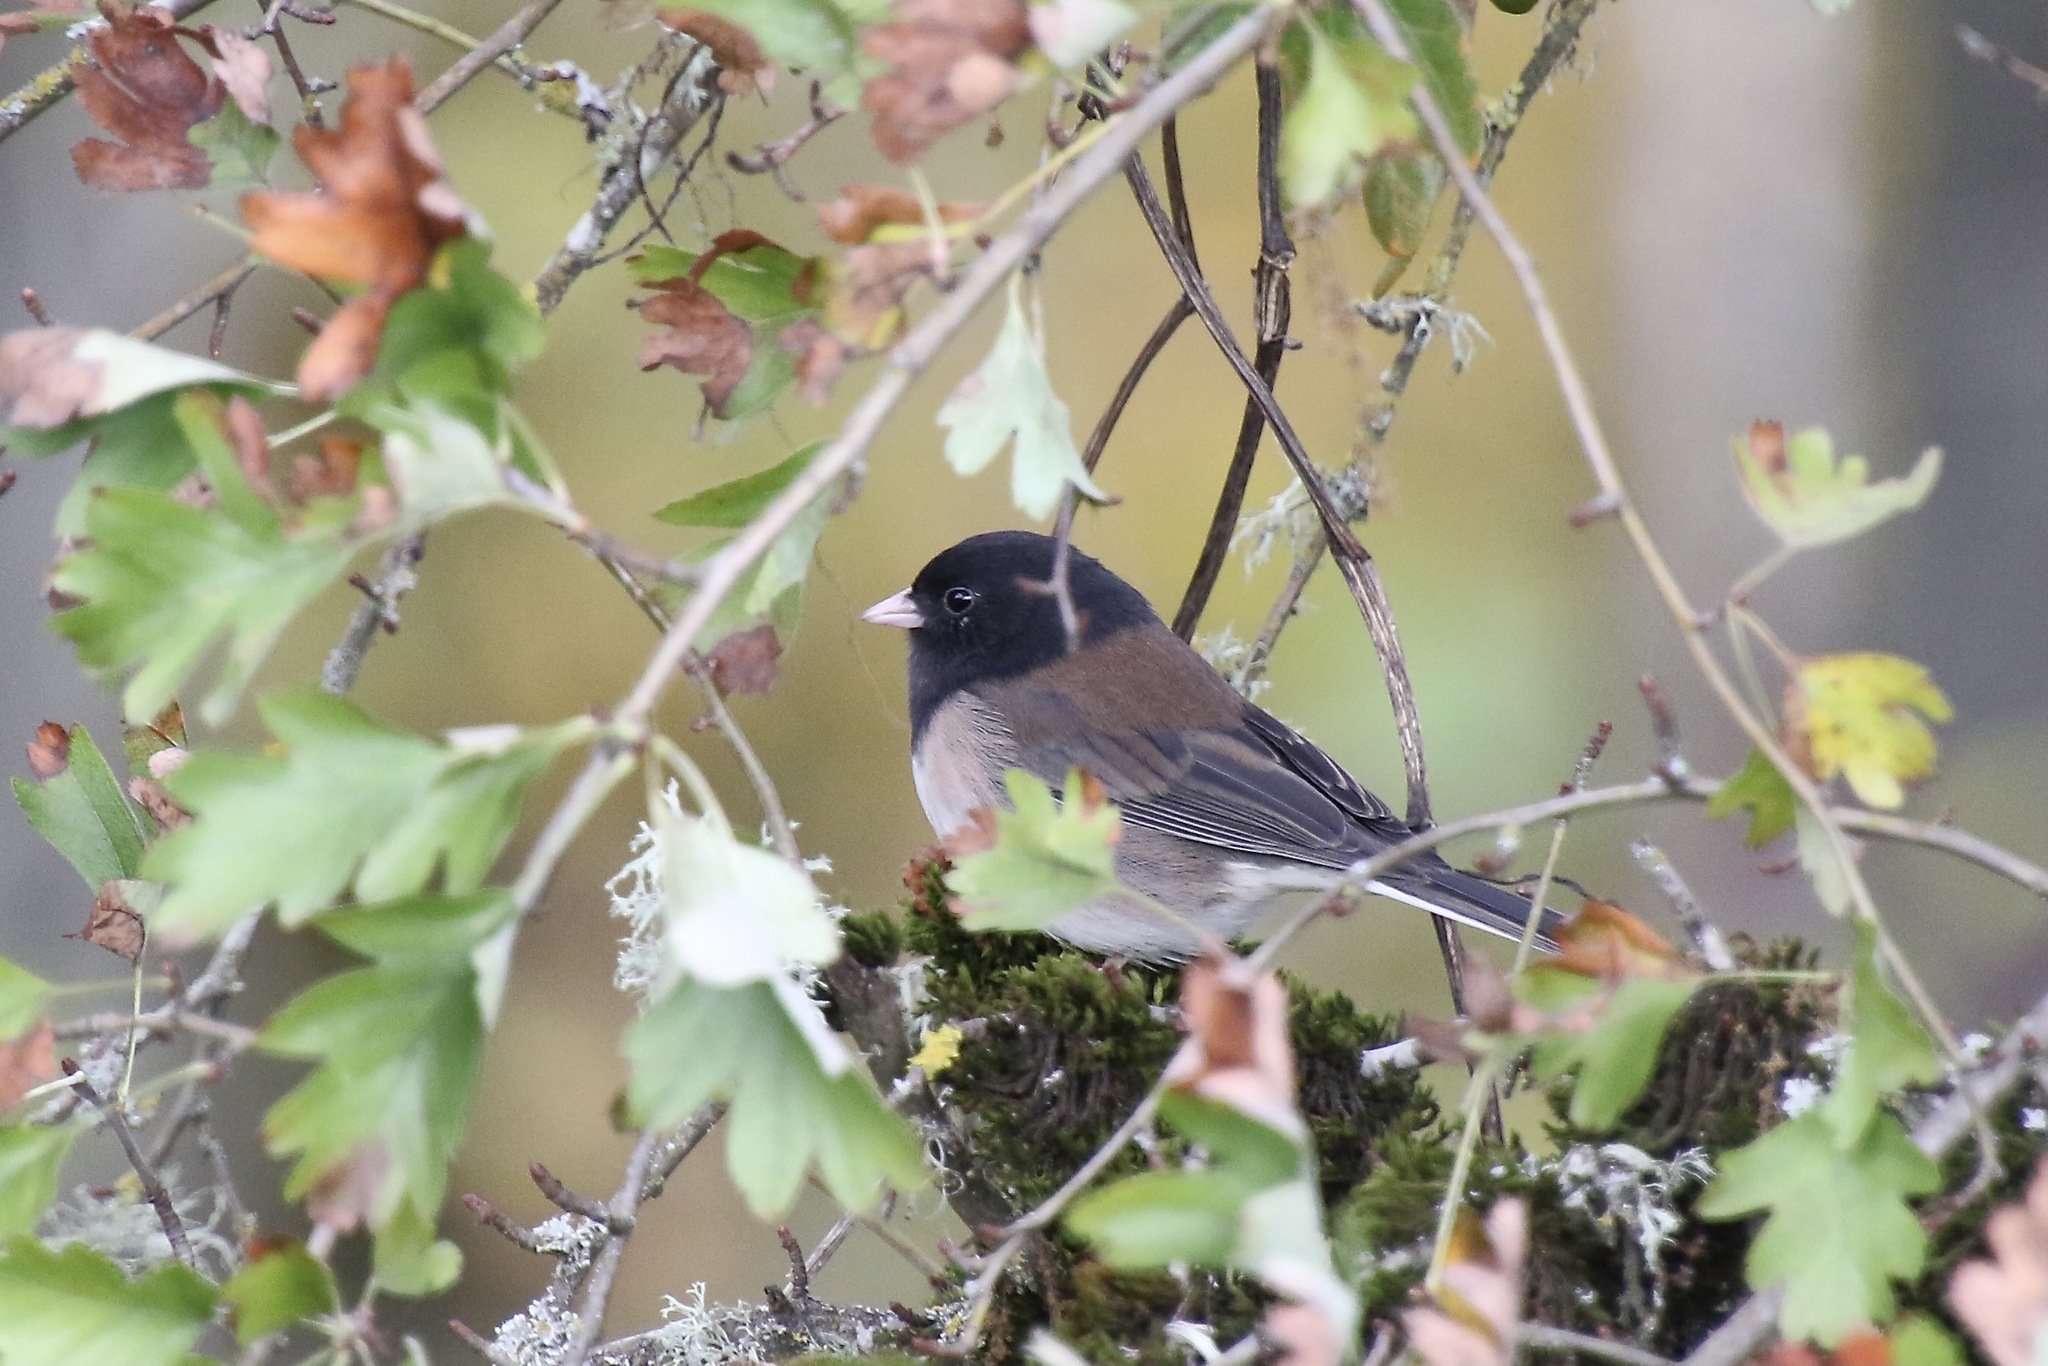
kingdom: Animalia
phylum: Chordata
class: Aves
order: Passeriformes
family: Passerellidae
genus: Junco
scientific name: Junco hyemalis
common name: Dark-eyed junco
